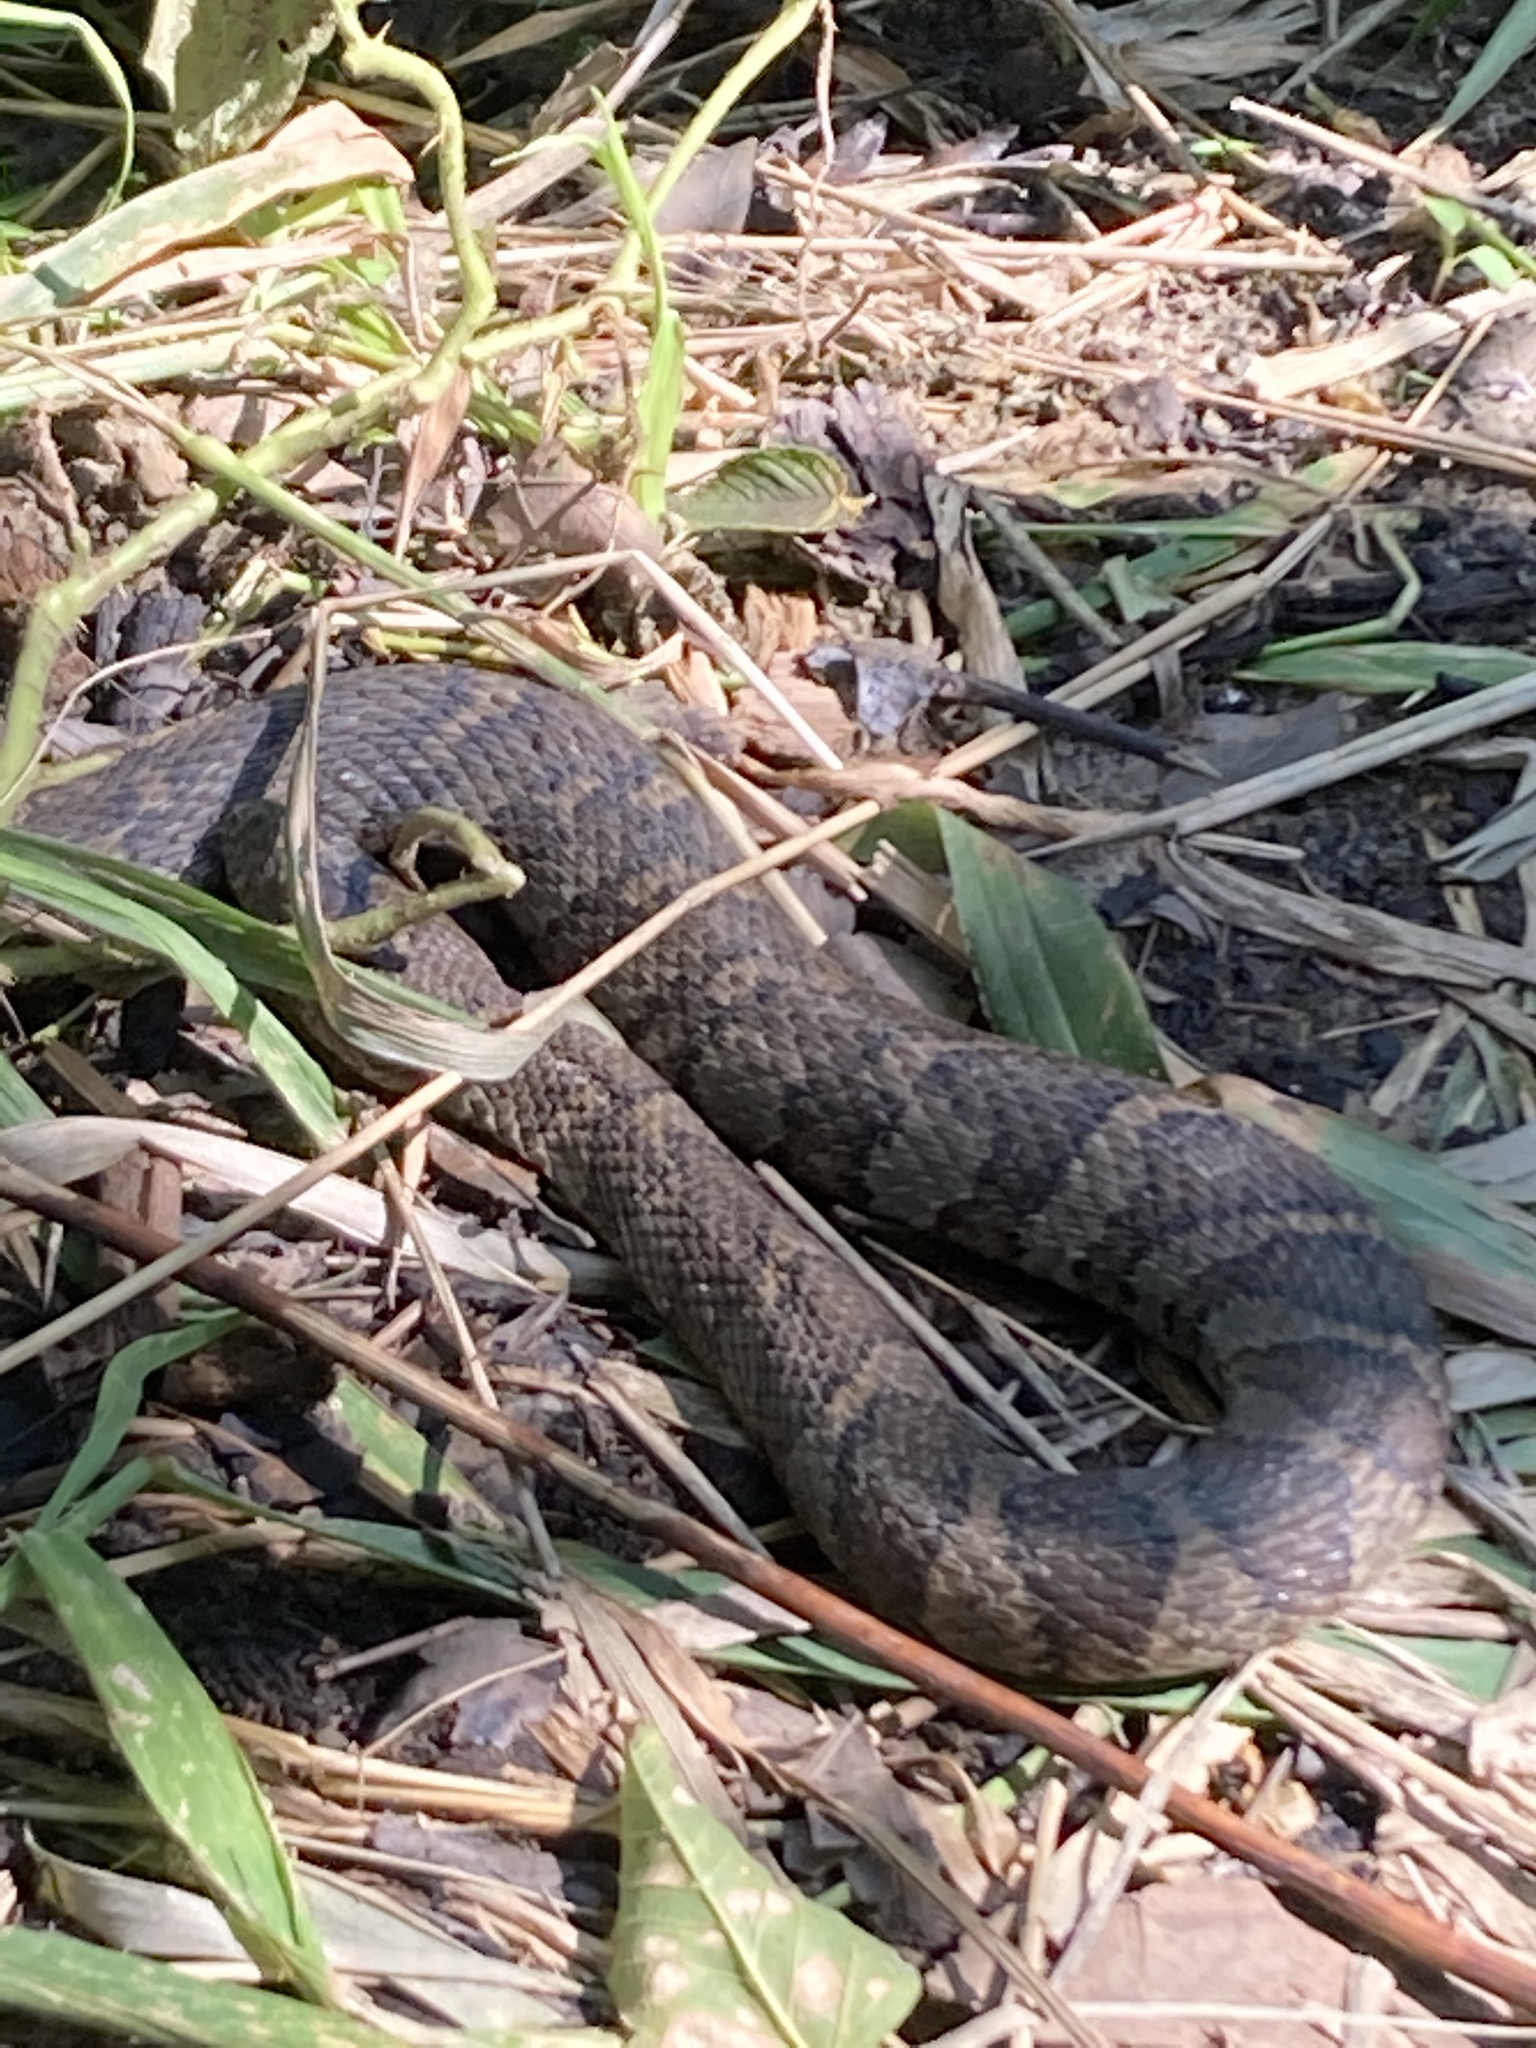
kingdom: Animalia
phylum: Chordata
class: Squamata
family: Colubridae
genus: Nerodia
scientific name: Nerodia sipedon
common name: Northern water snake
